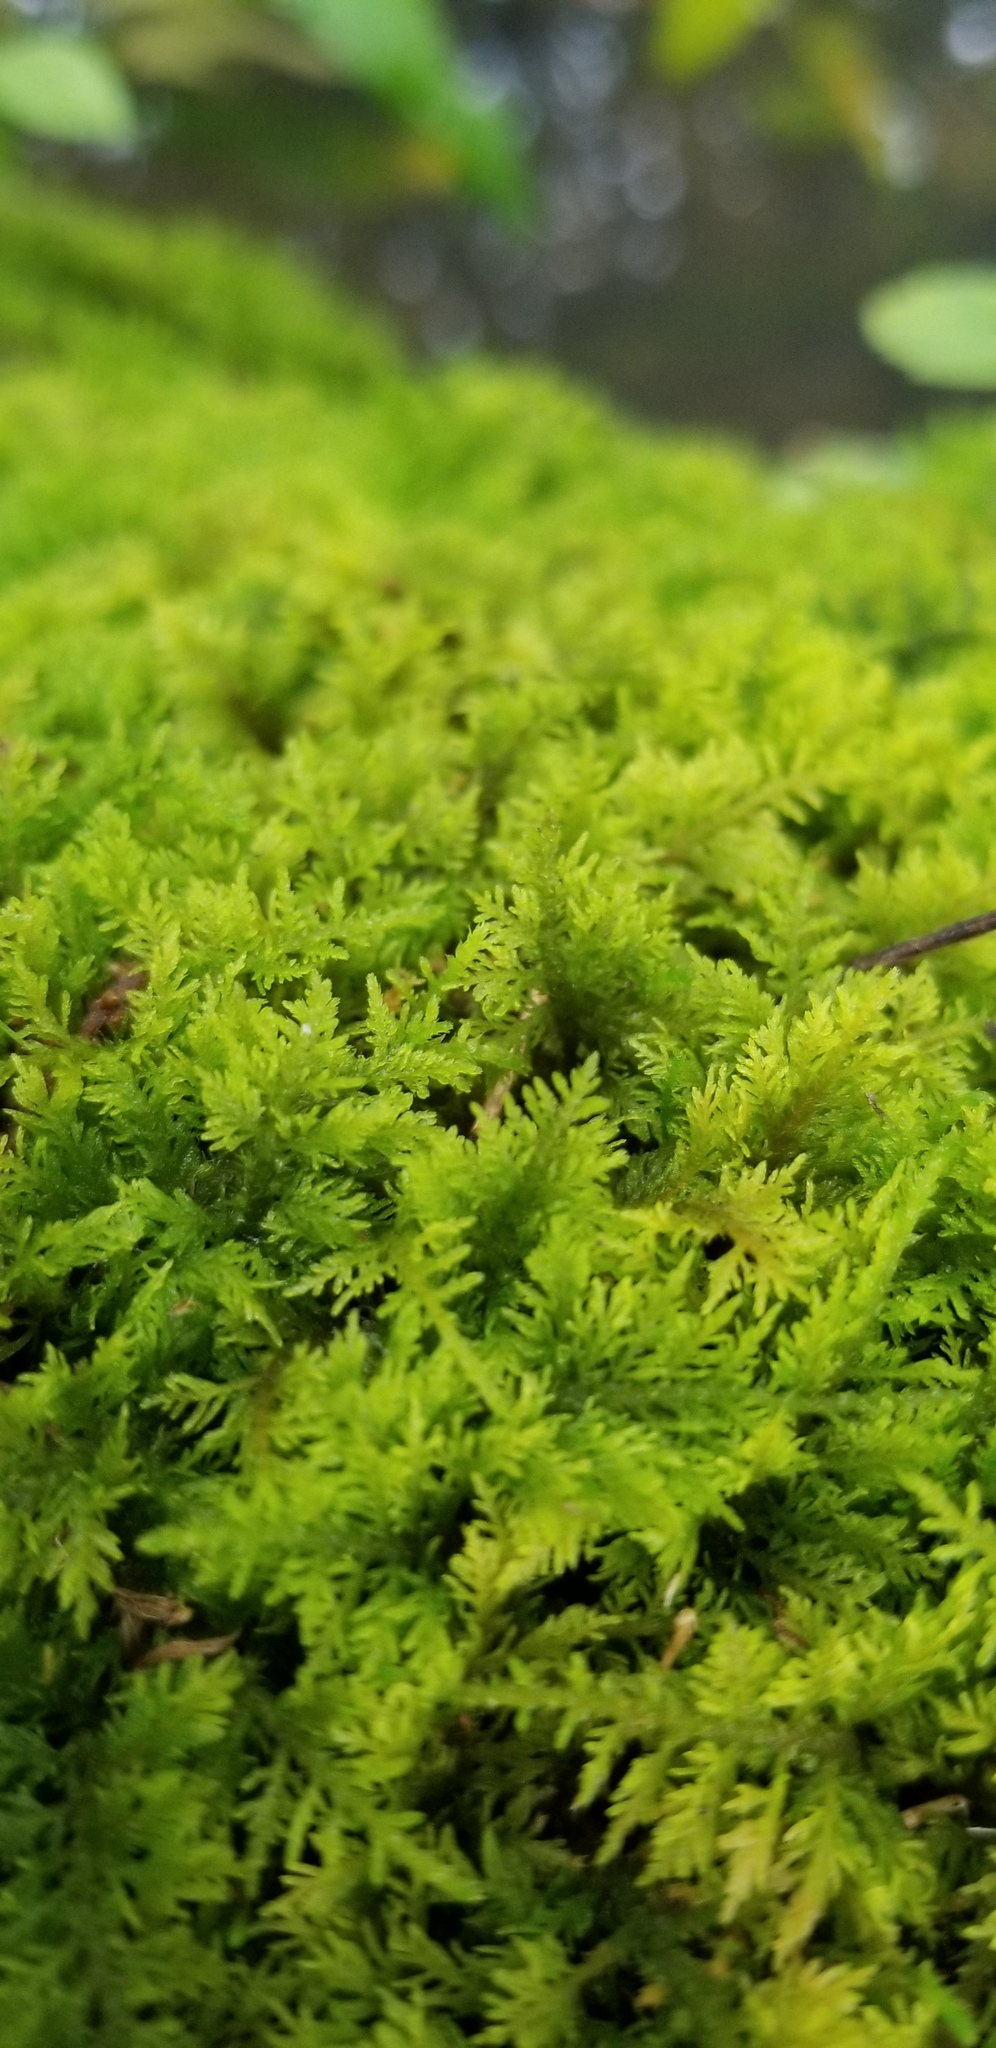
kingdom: Plantae
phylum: Bryophyta
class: Bryopsida
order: Hypnales
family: Thuidiaceae
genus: Thuidium
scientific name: Thuidium delicatulum
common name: Delicate fern moss
